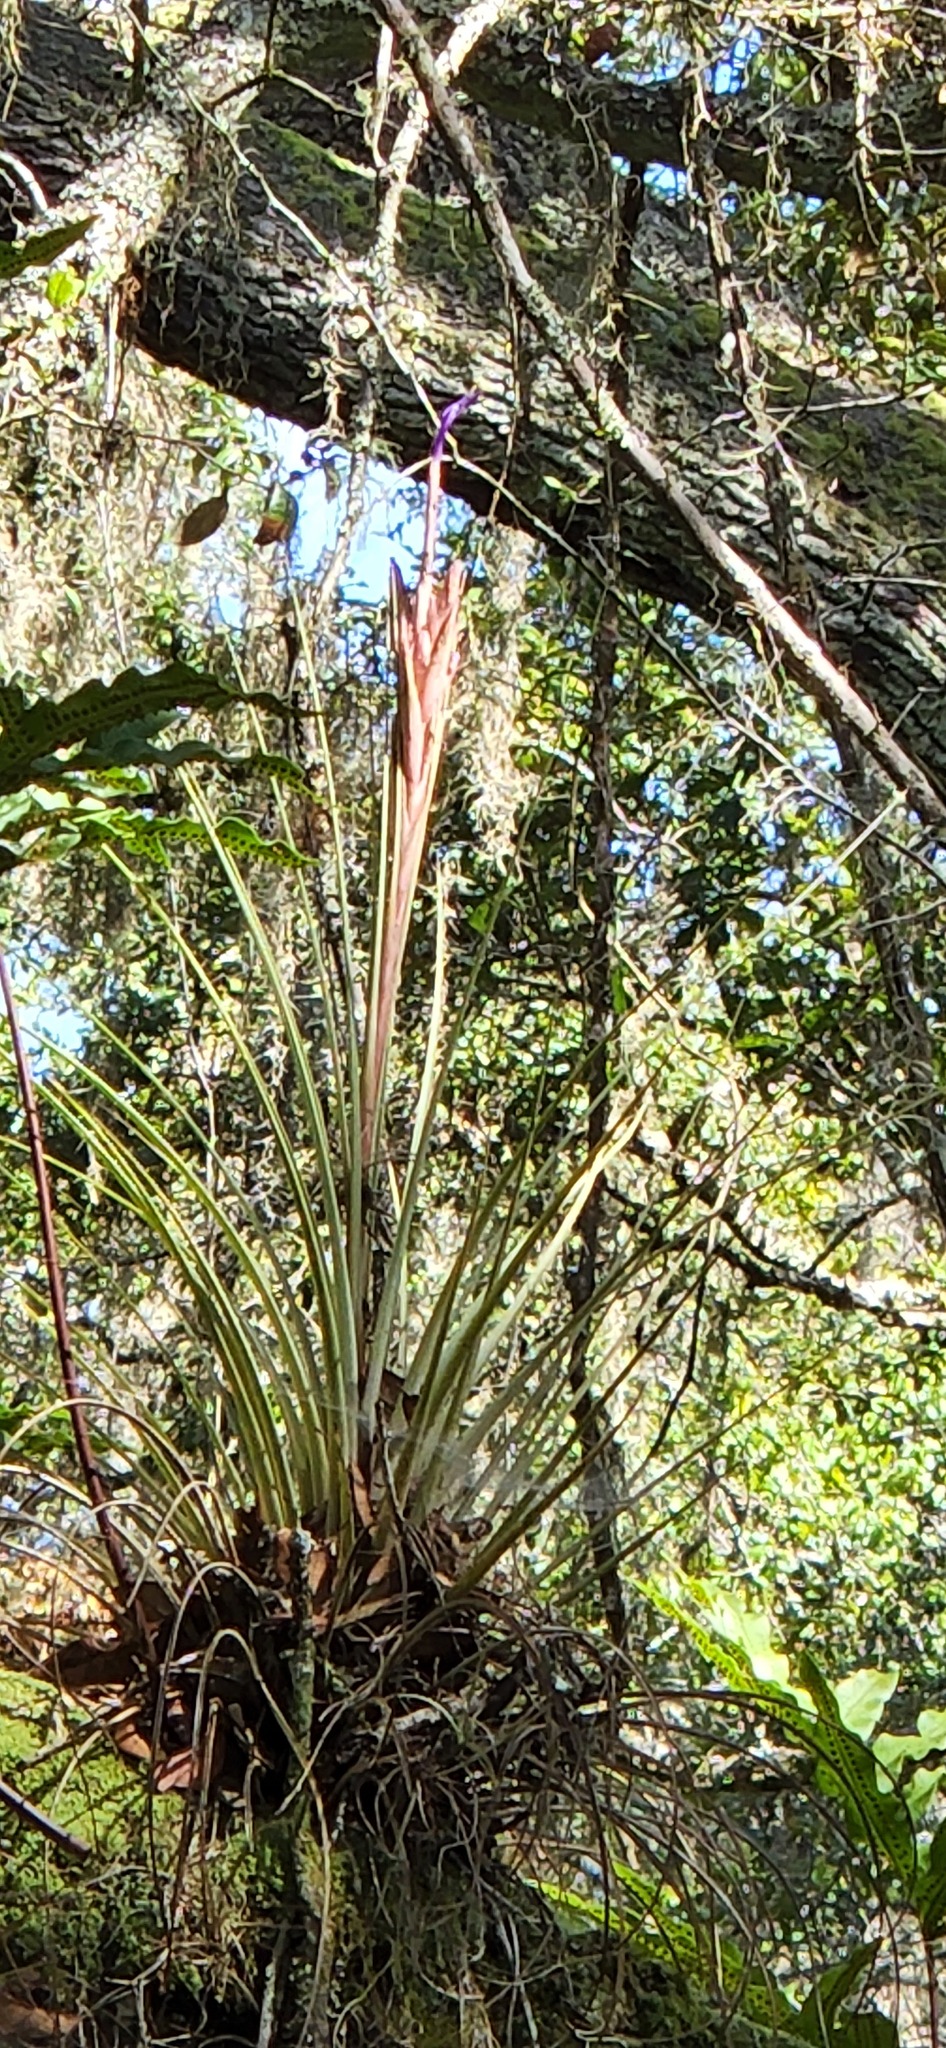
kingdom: Plantae
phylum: Tracheophyta
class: Liliopsida
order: Poales
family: Bromeliaceae
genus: Tillandsia
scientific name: Tillandsia floridana
